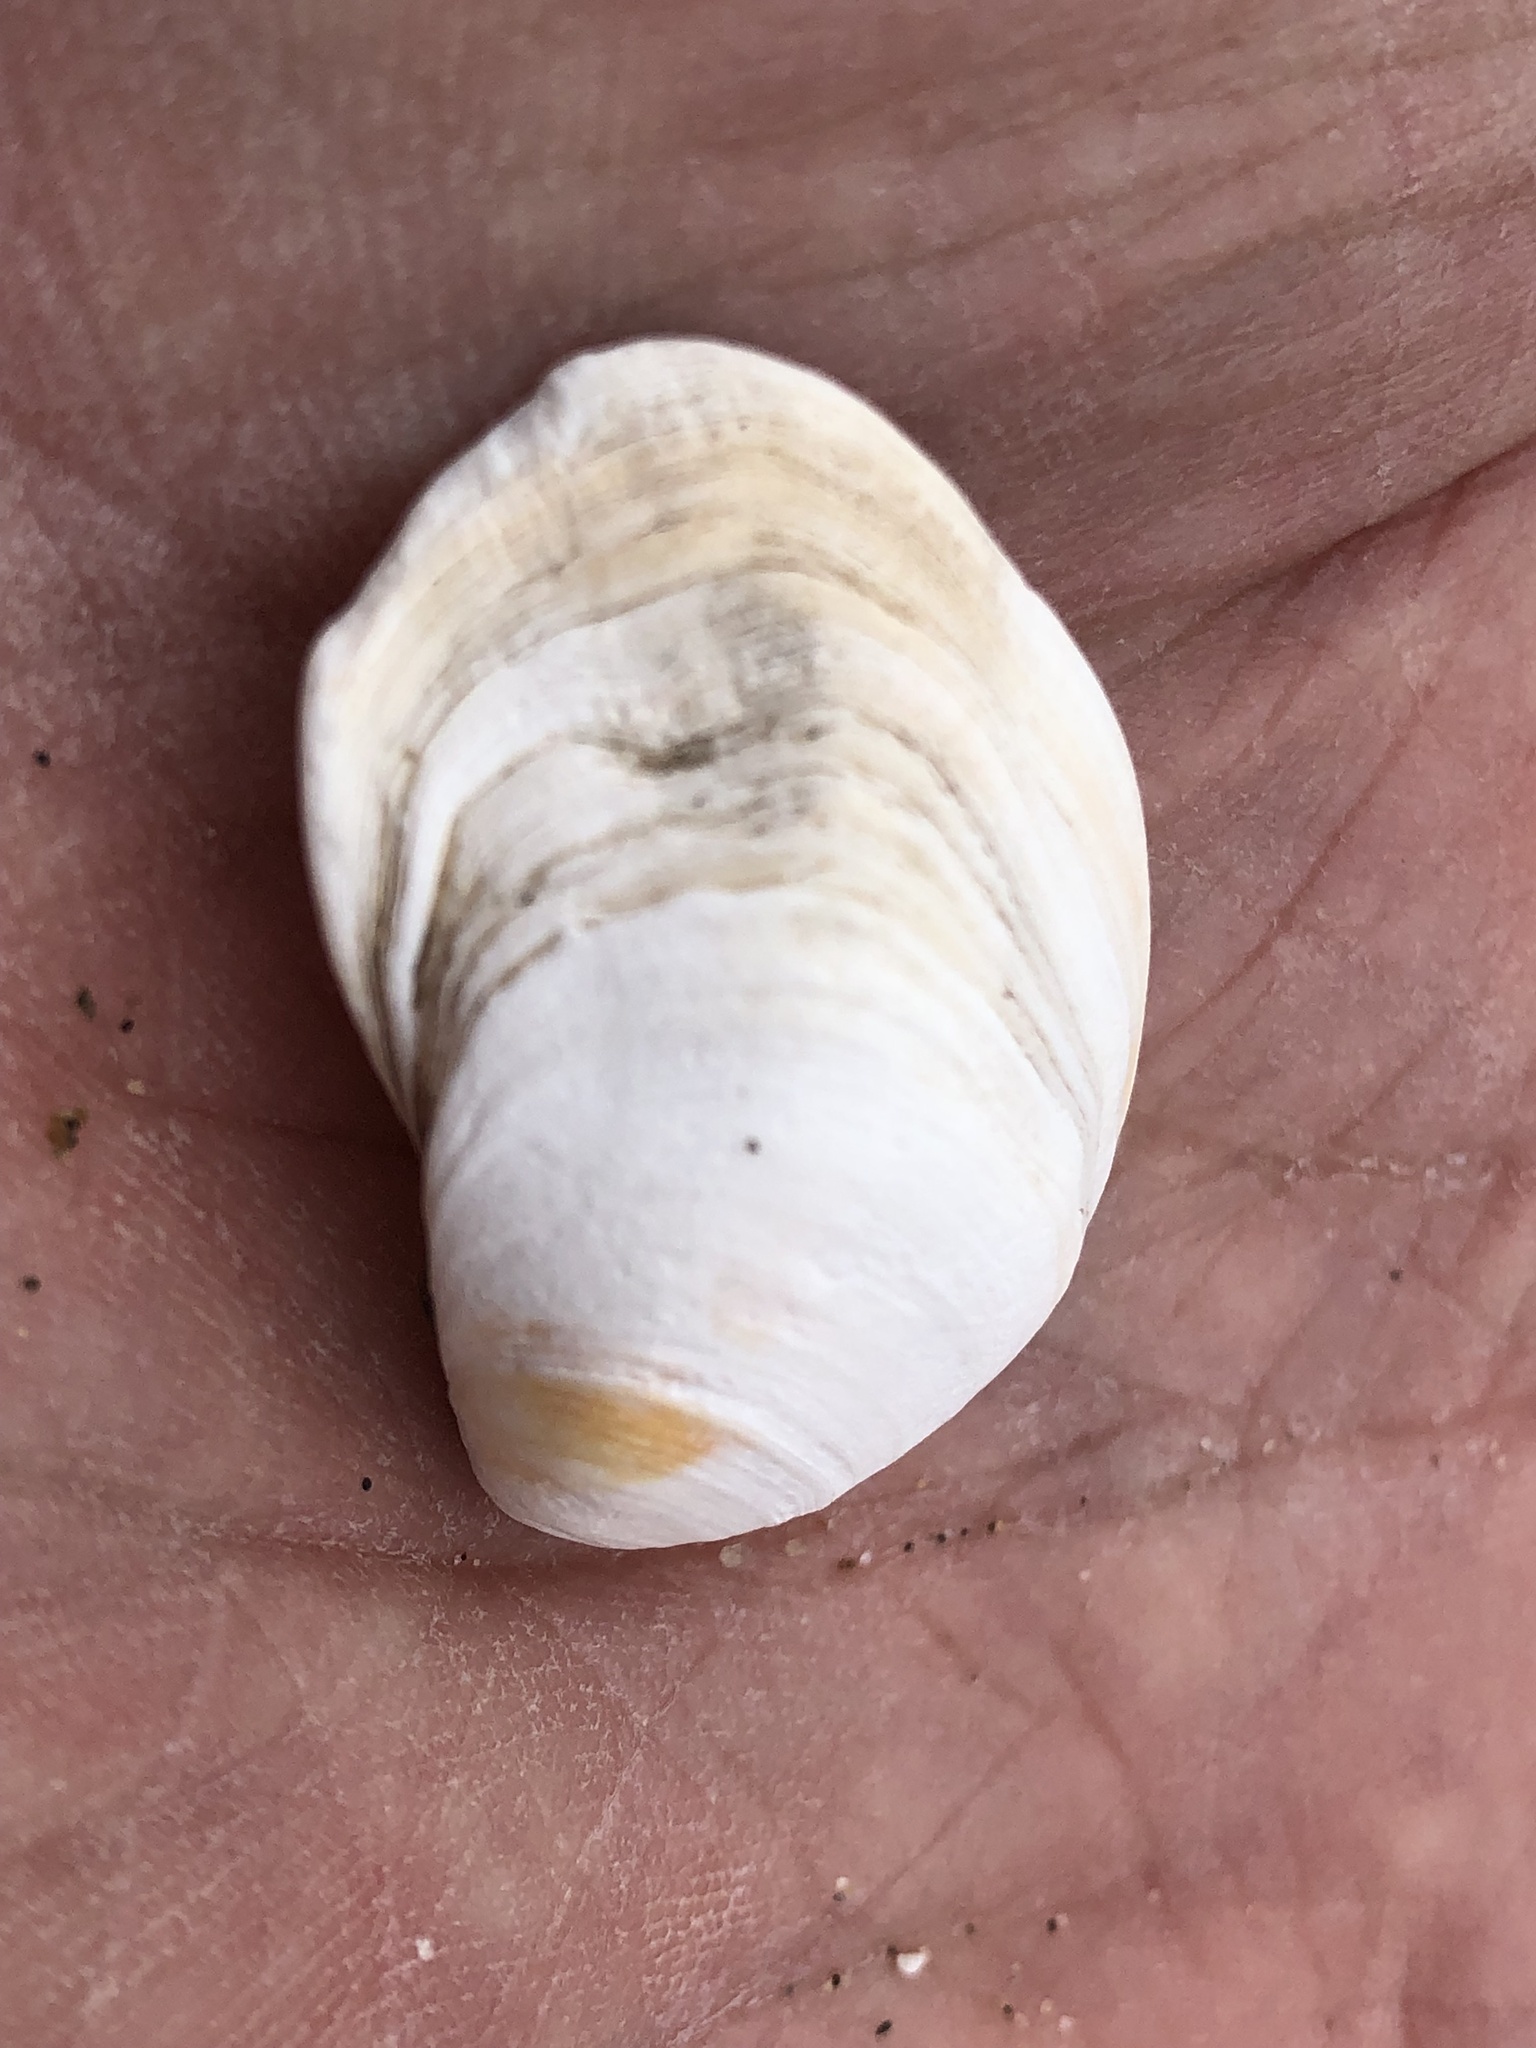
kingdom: Animalia
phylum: Mollusca
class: Bivalvia
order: Venerida
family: Veneridae
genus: Petricola
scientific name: Petricola carditoides
